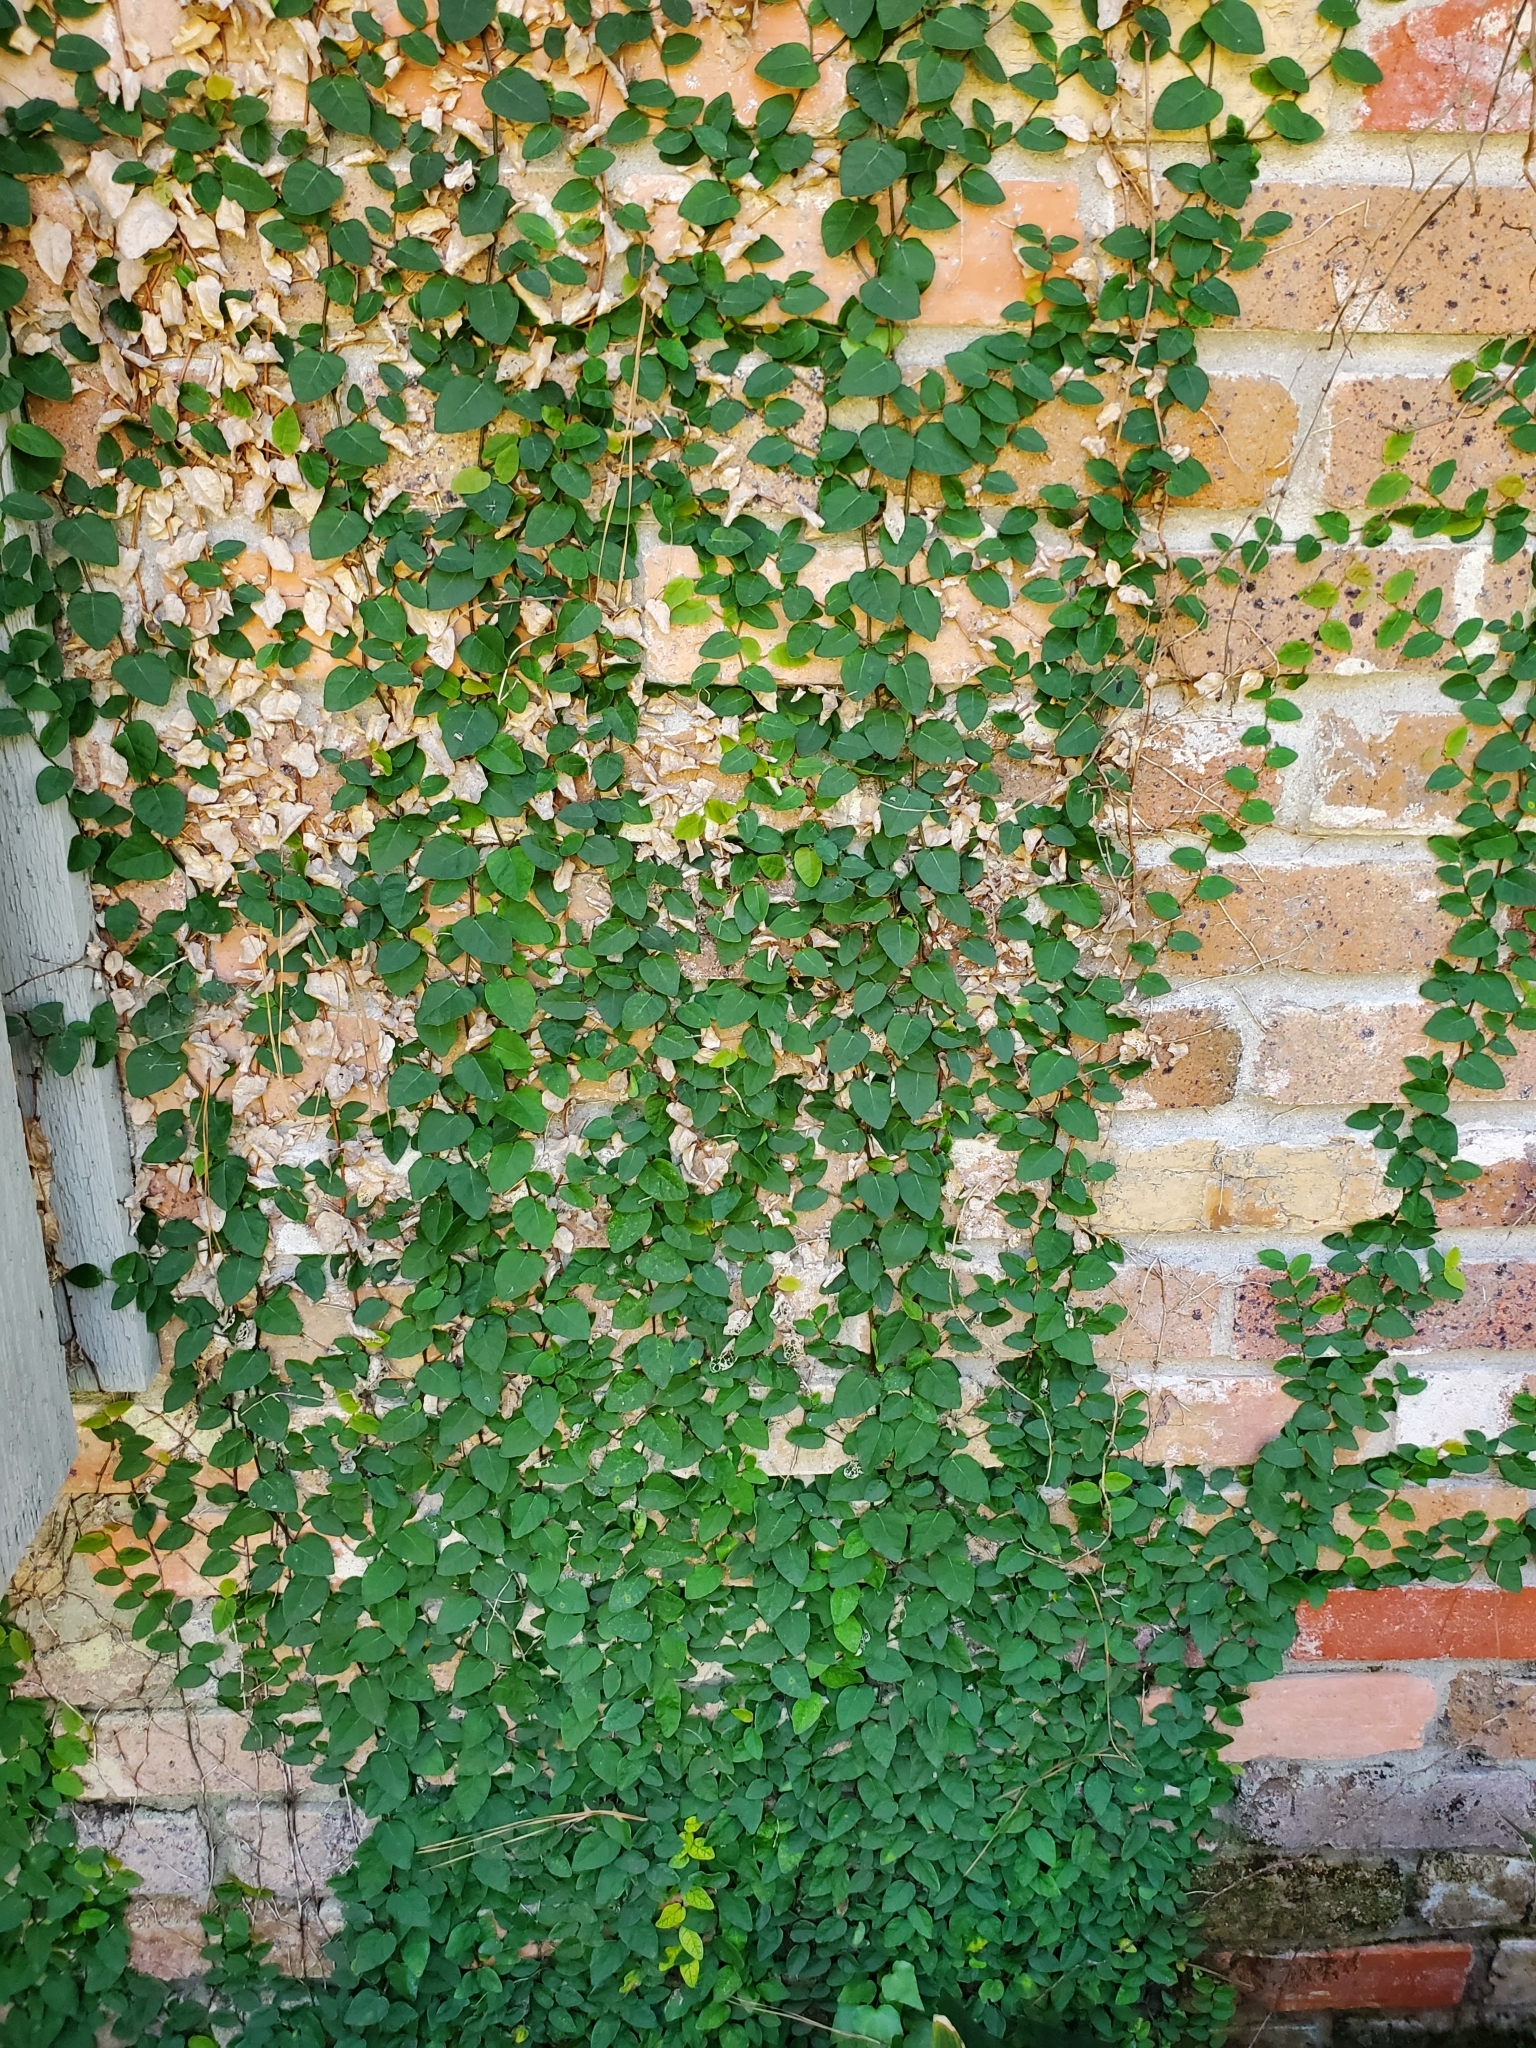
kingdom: Plantae
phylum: Tracheophyta
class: Magnoliopsida
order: Rosales
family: Moraceae
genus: Ficus
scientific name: Ficus pumila
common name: Climbingfig
